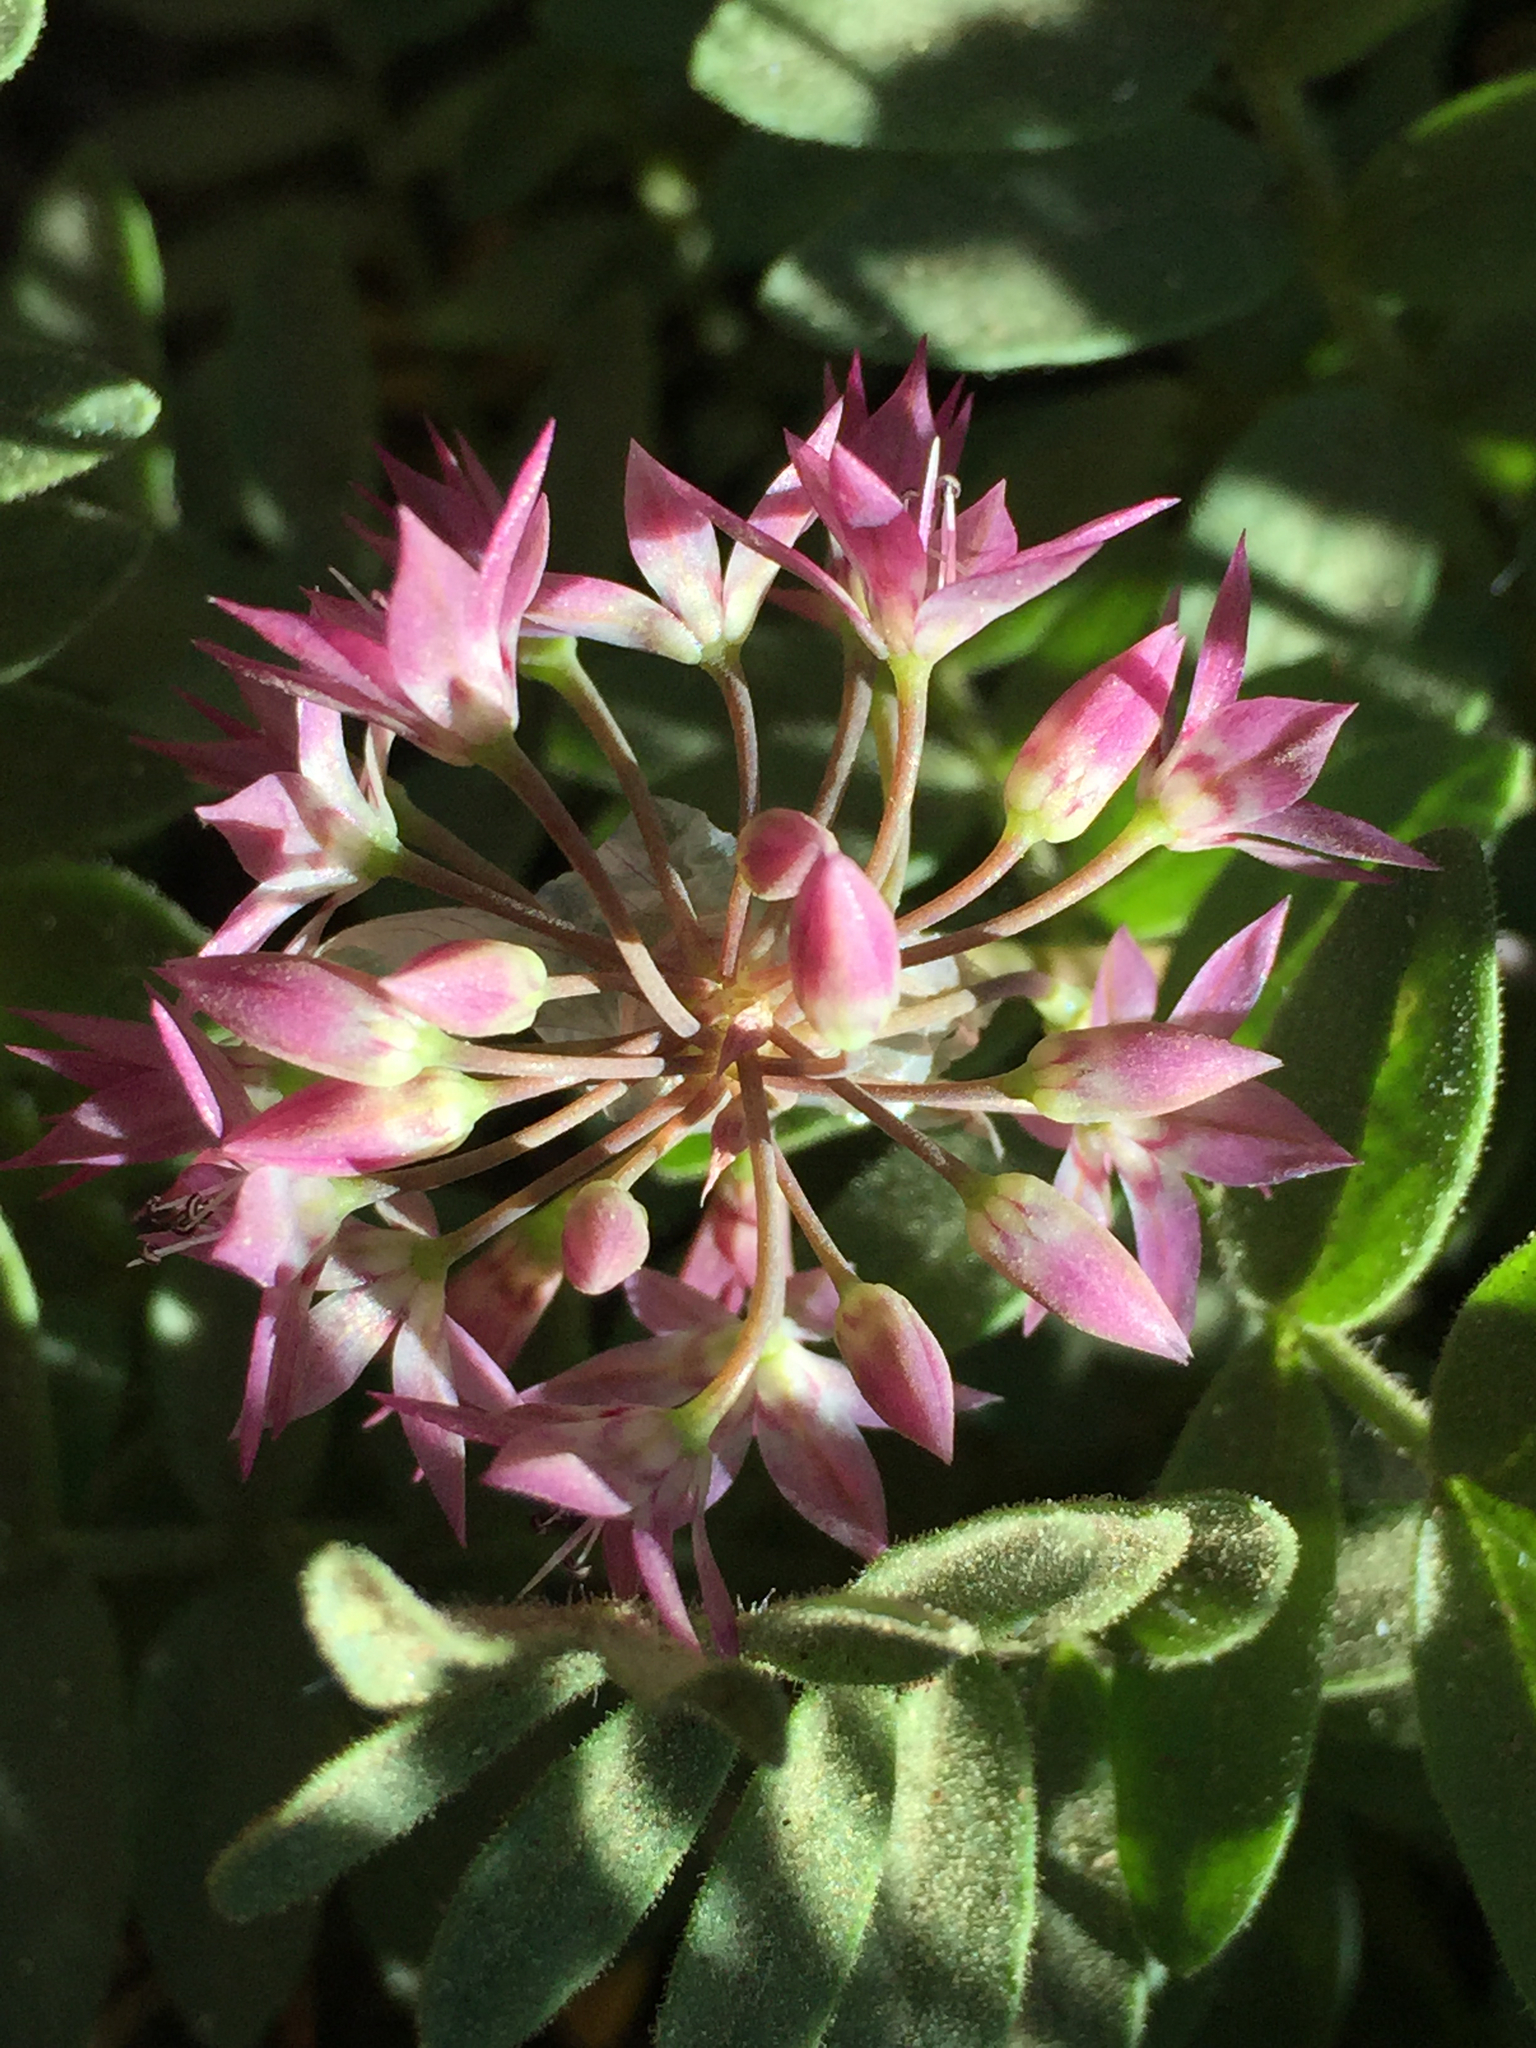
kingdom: Plantae
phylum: Tracheophyta
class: Liliopsida
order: Asparagales
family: Amaryllidaceae
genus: Allium
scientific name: Allium campanulatum
